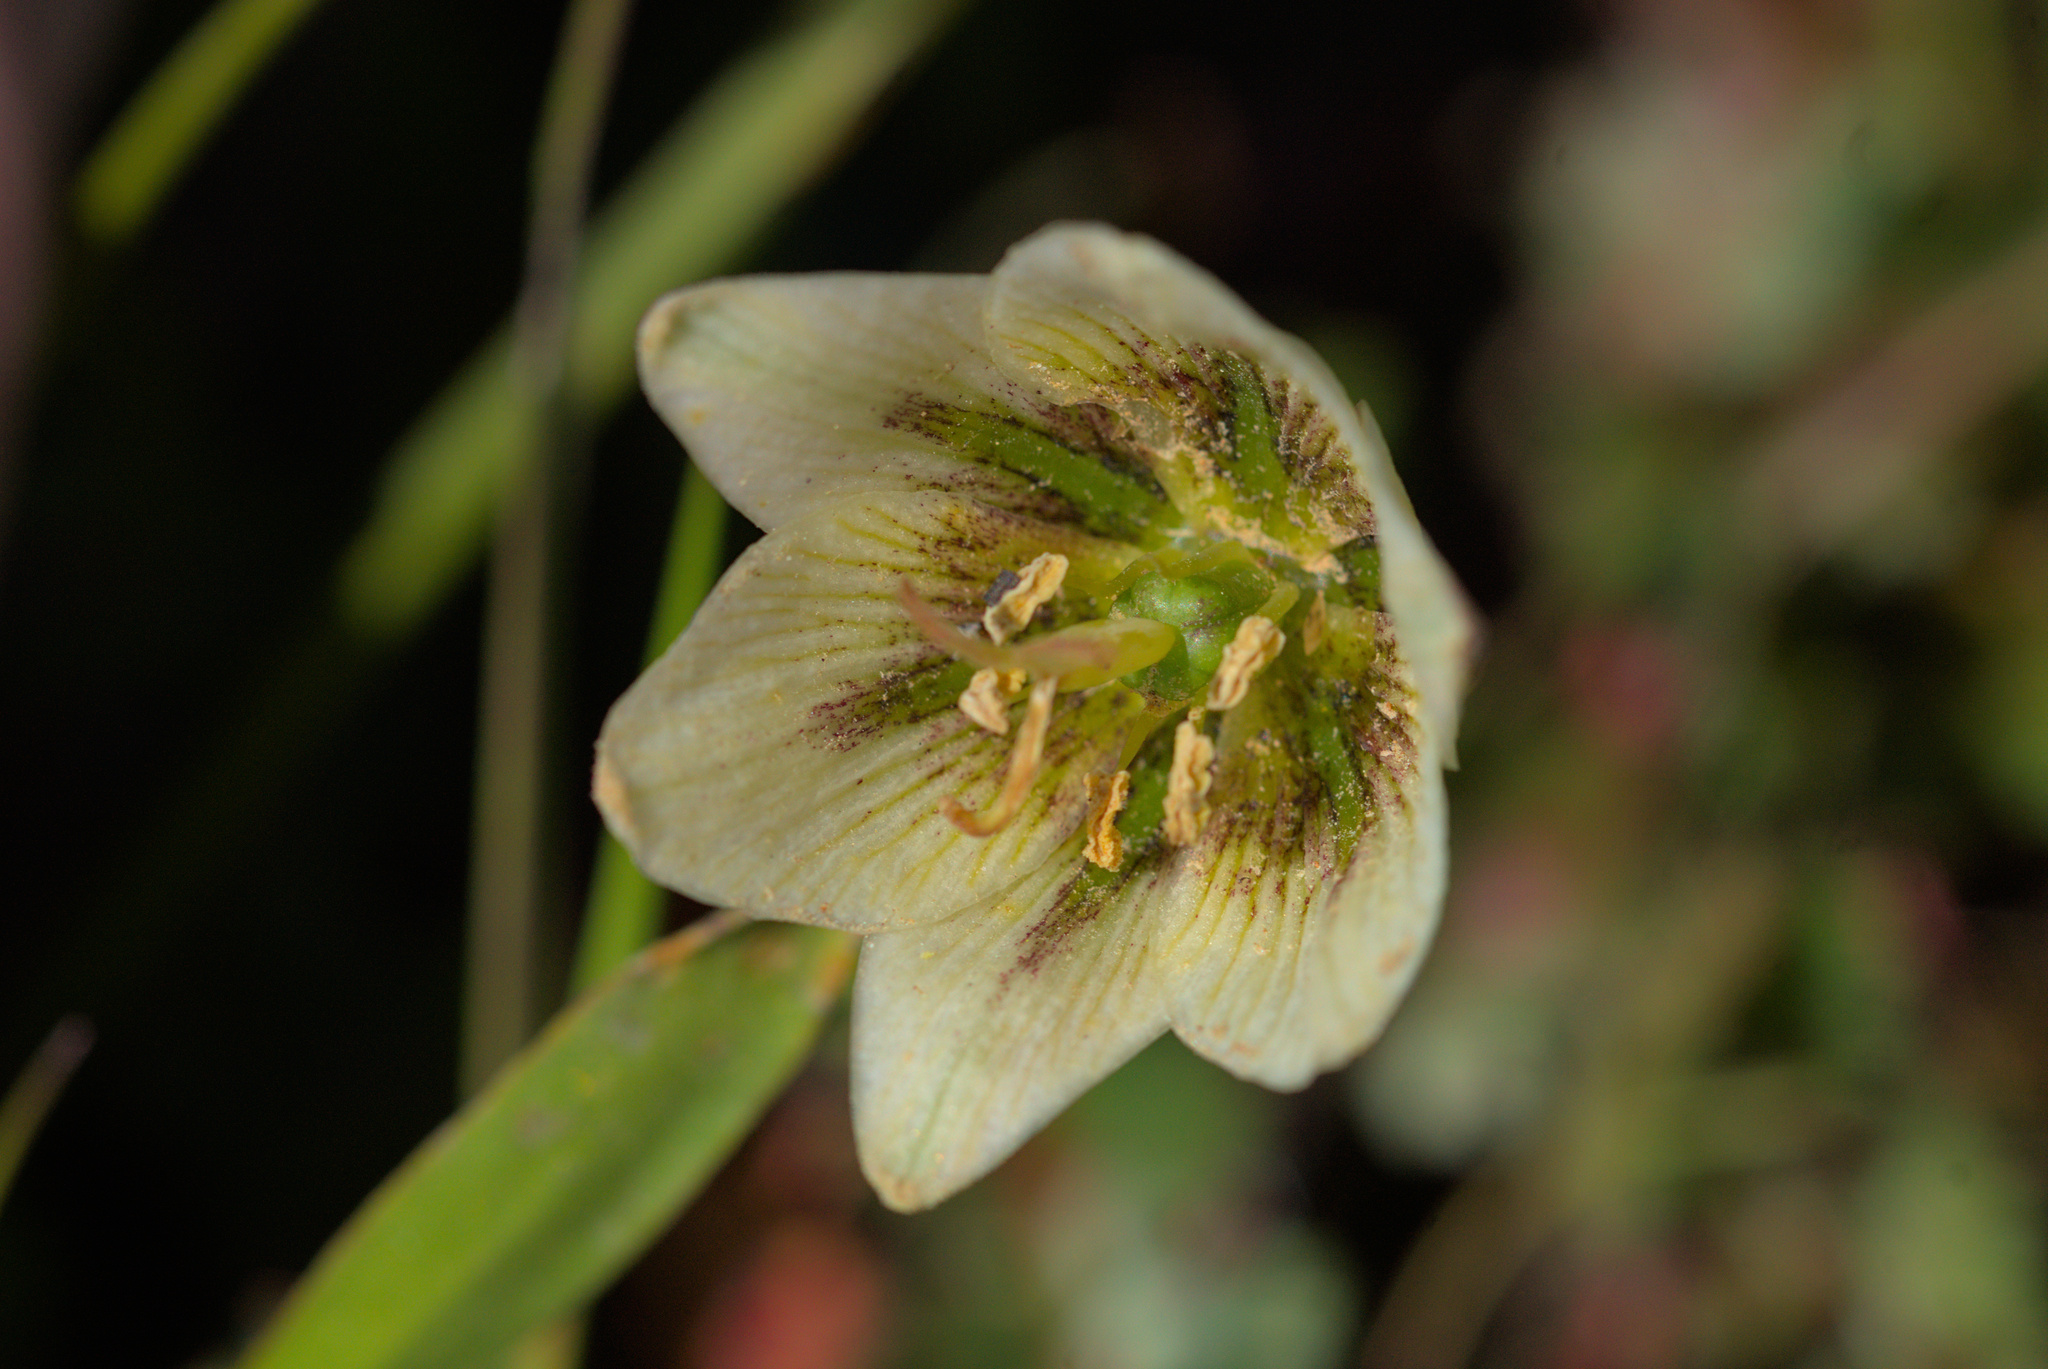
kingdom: Plantae
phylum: Tracheophyta
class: Liliopsida
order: Liliales
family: Liliaceae
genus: Fritillaria
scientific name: Fritillaria liliacea
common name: Fragrant fritillary
